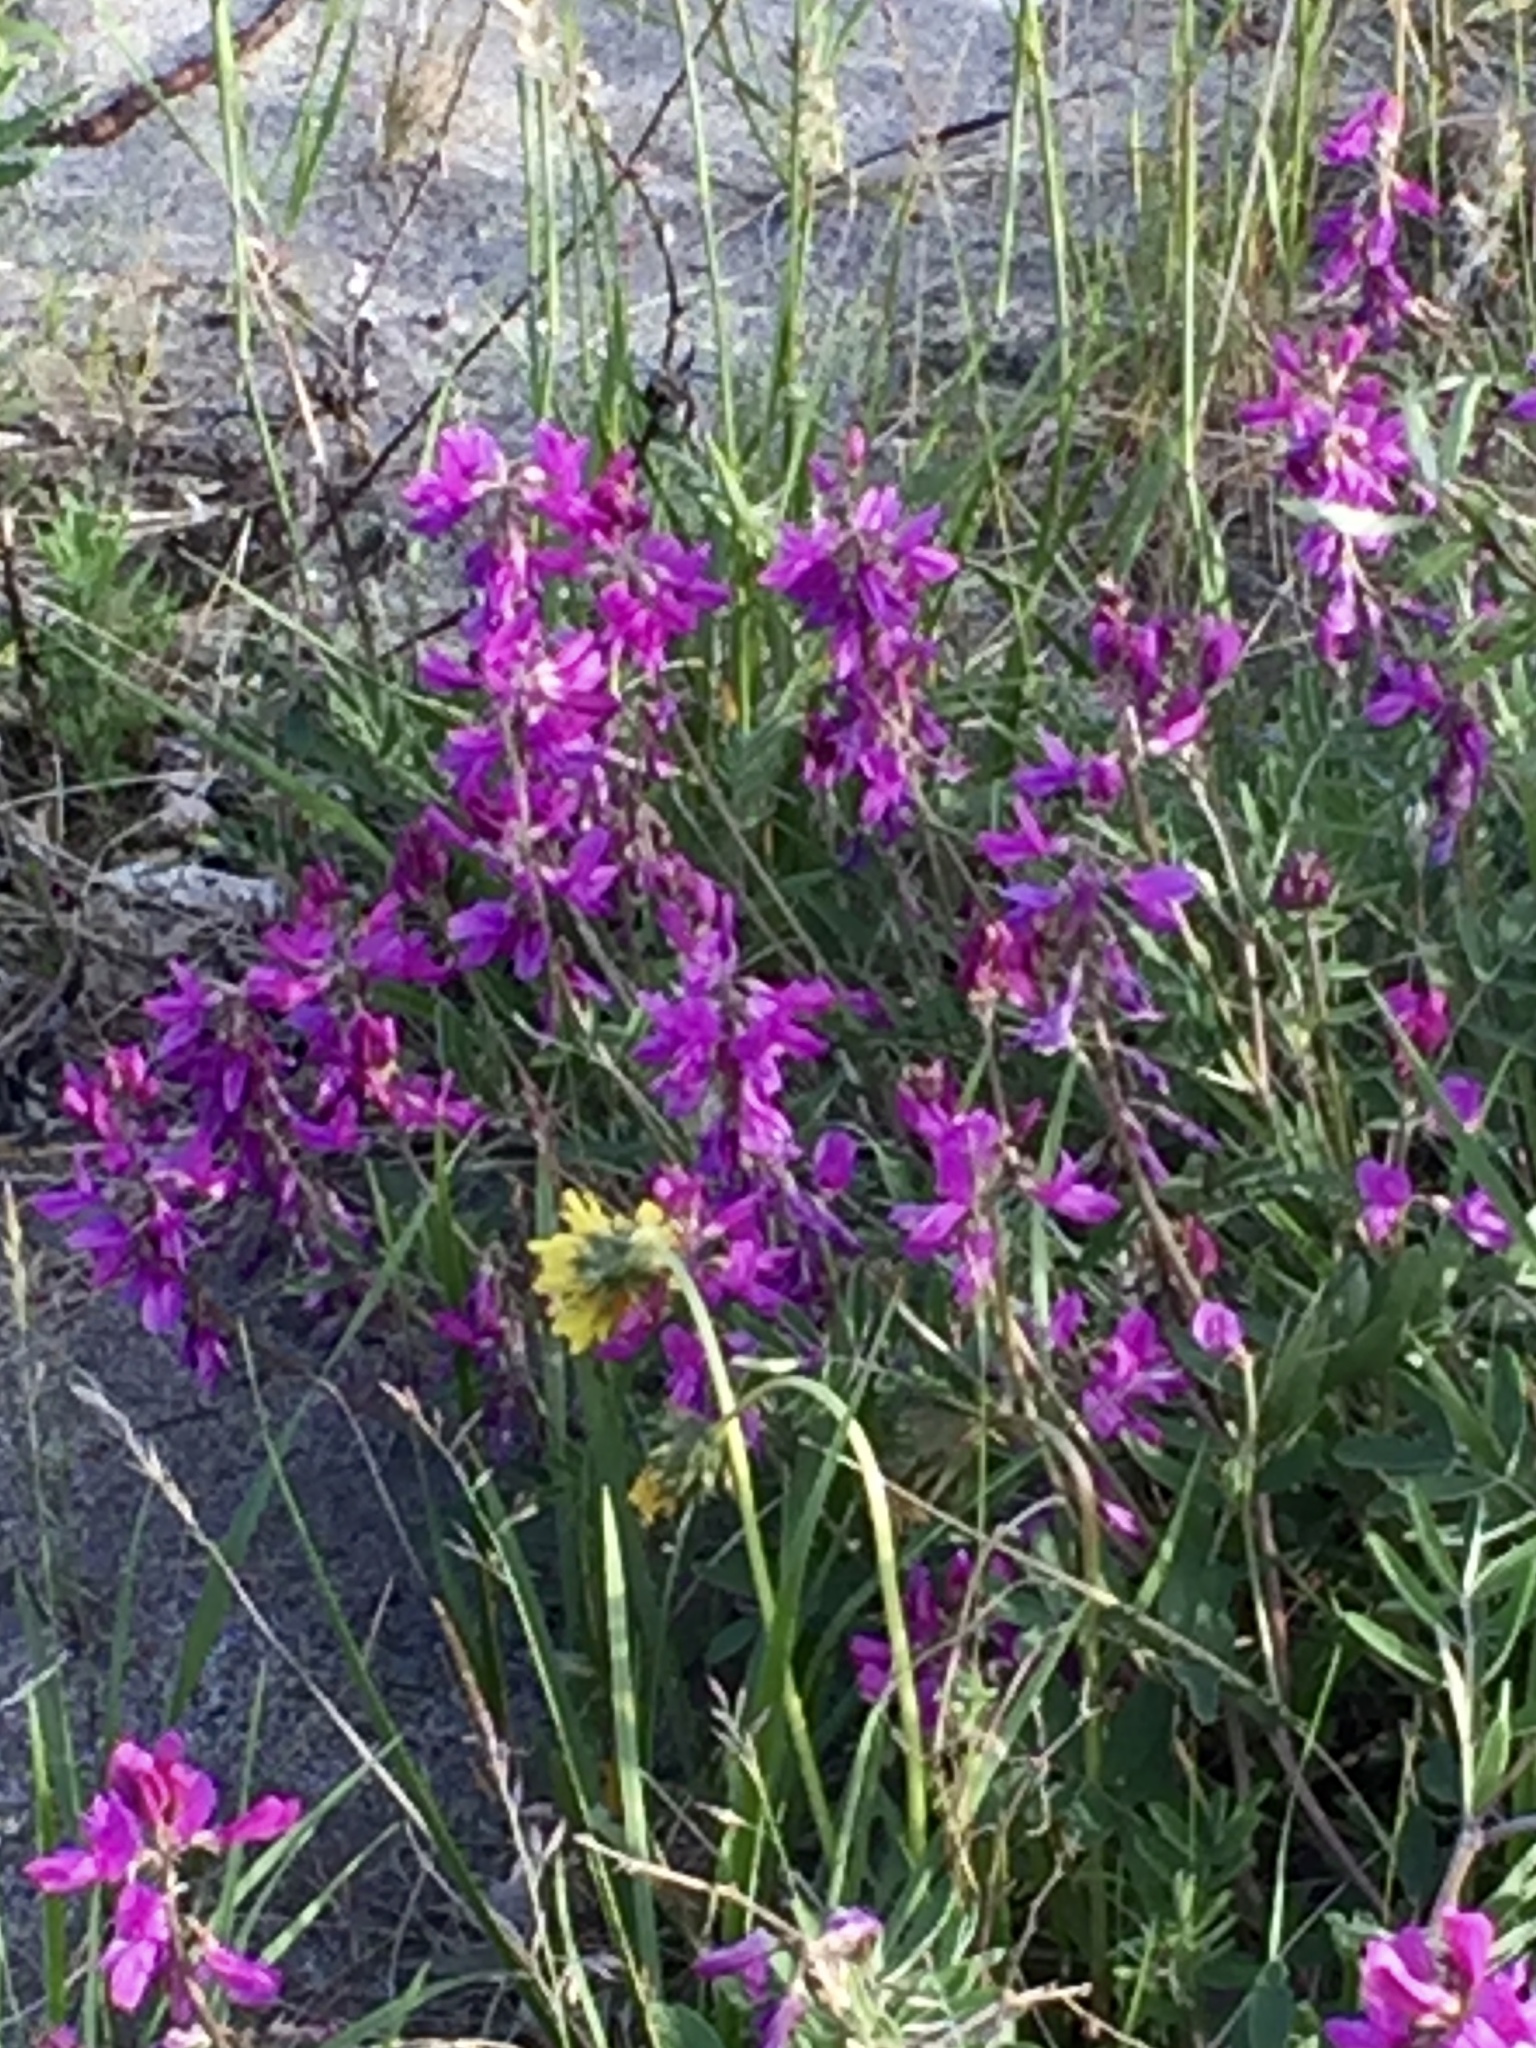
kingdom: Plantae
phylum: Tracheophyta
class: Magnoliopsida
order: Fabales
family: Fabaceae
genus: Hedysarum
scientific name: Hedysarum boreale
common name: Northern sweet-vetch
